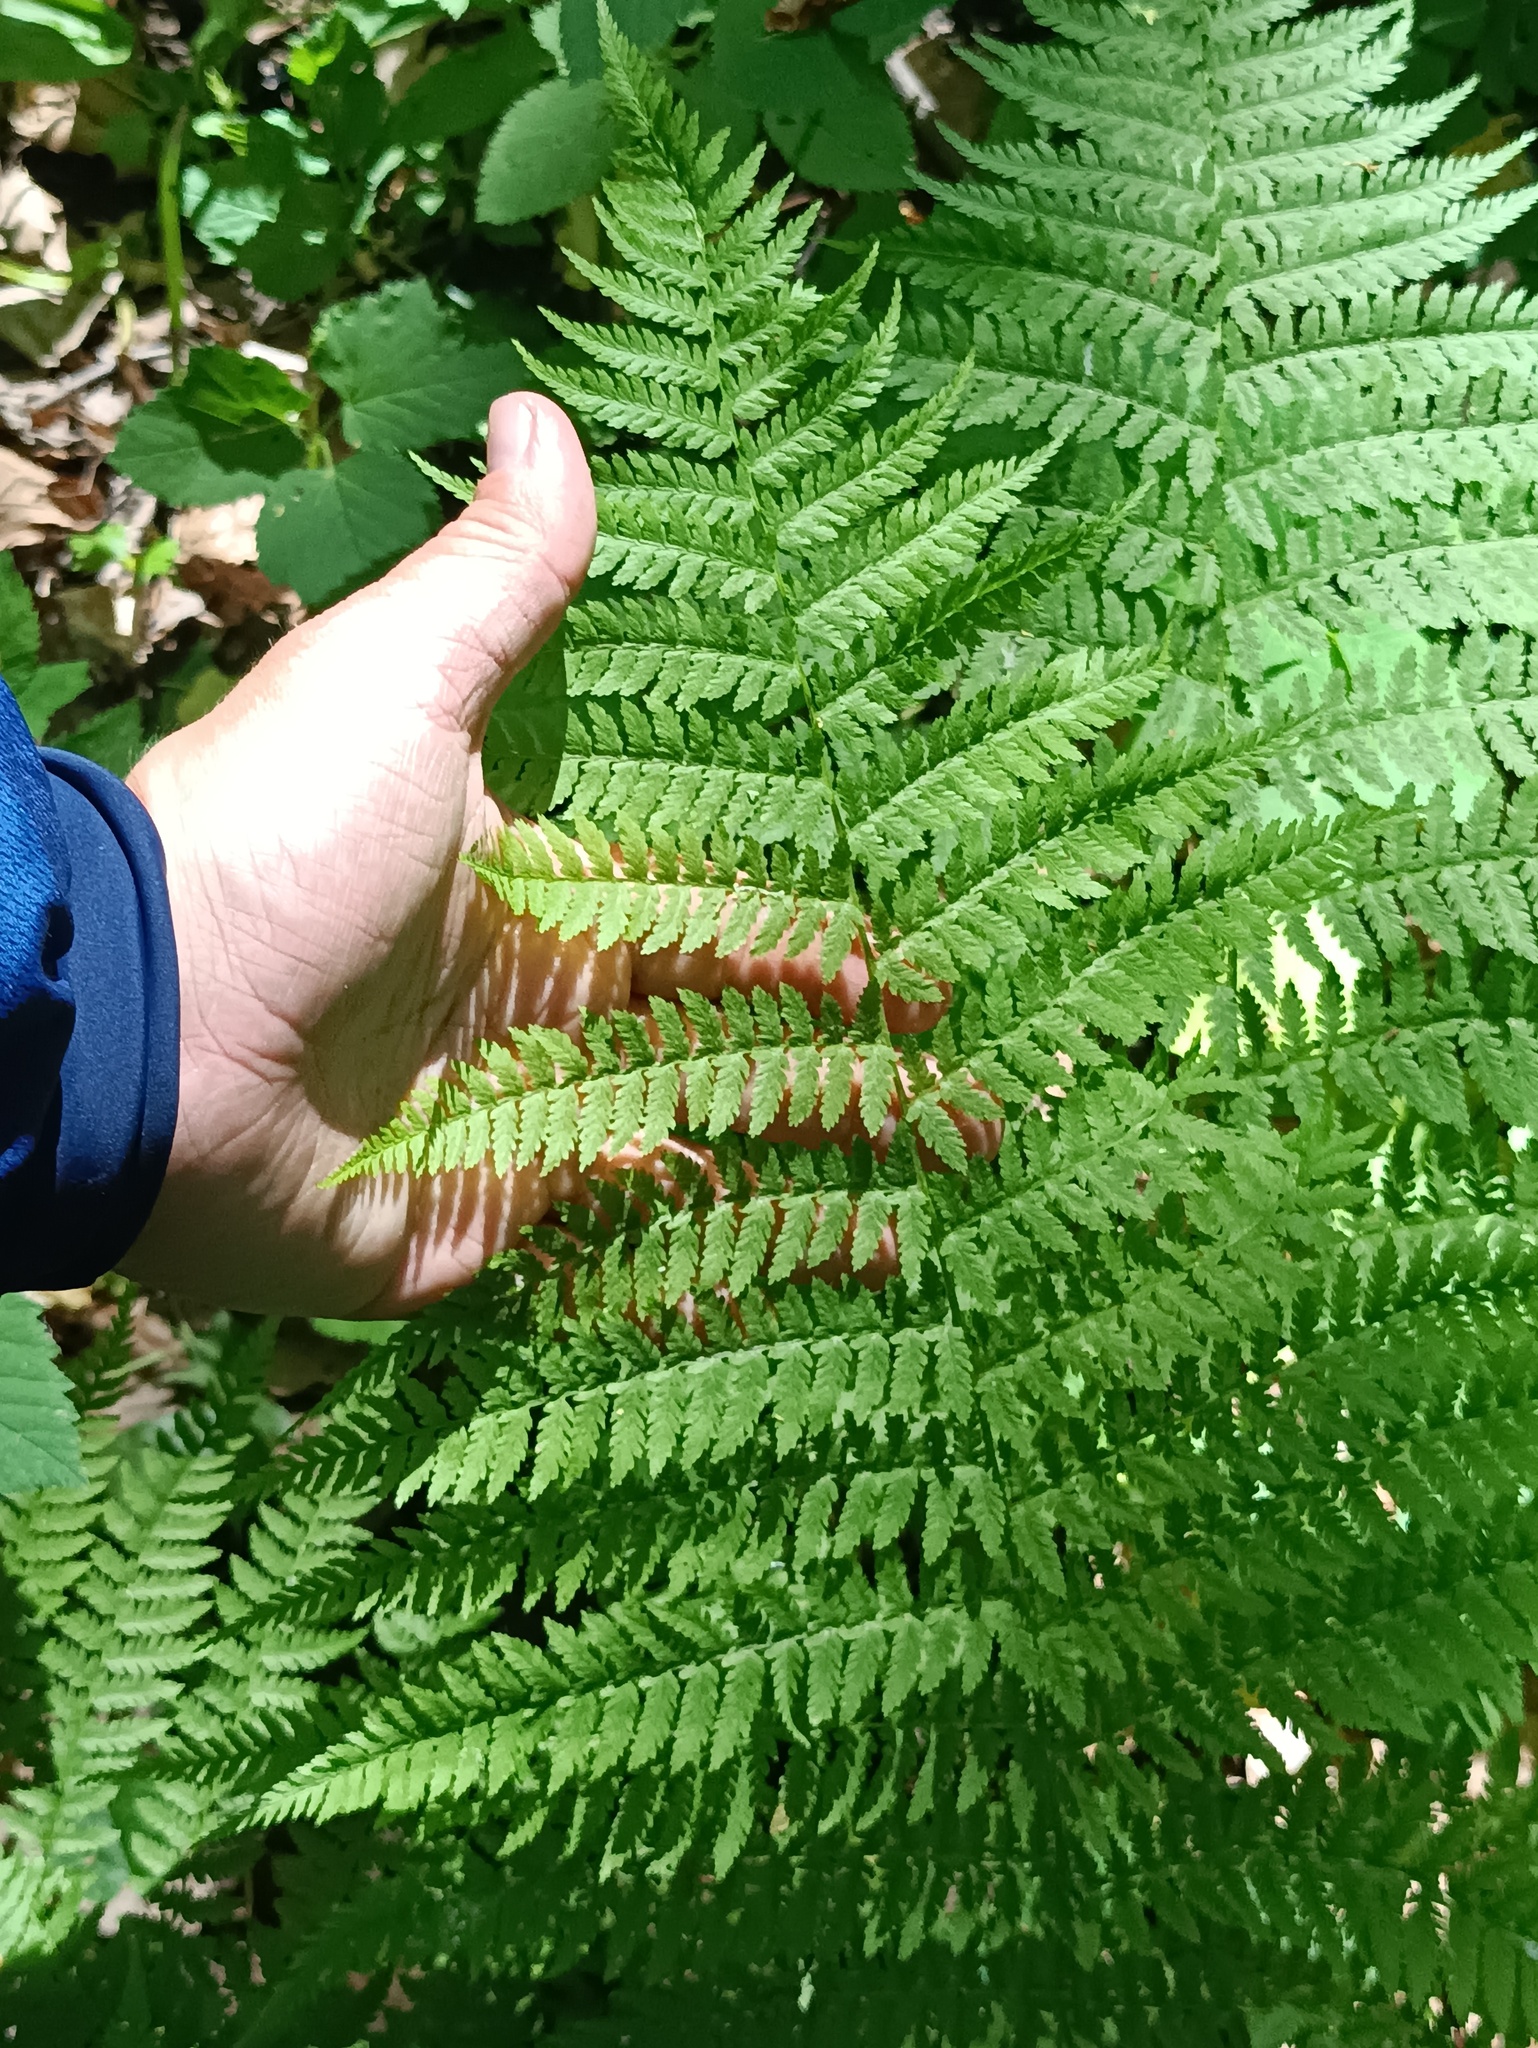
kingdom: Plantae
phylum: Tracheophyta
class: Polypodiopsida
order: Polypodiales
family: Athyriaceae
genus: Athyrium
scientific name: Athyrium filix-femina
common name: Lady fern
